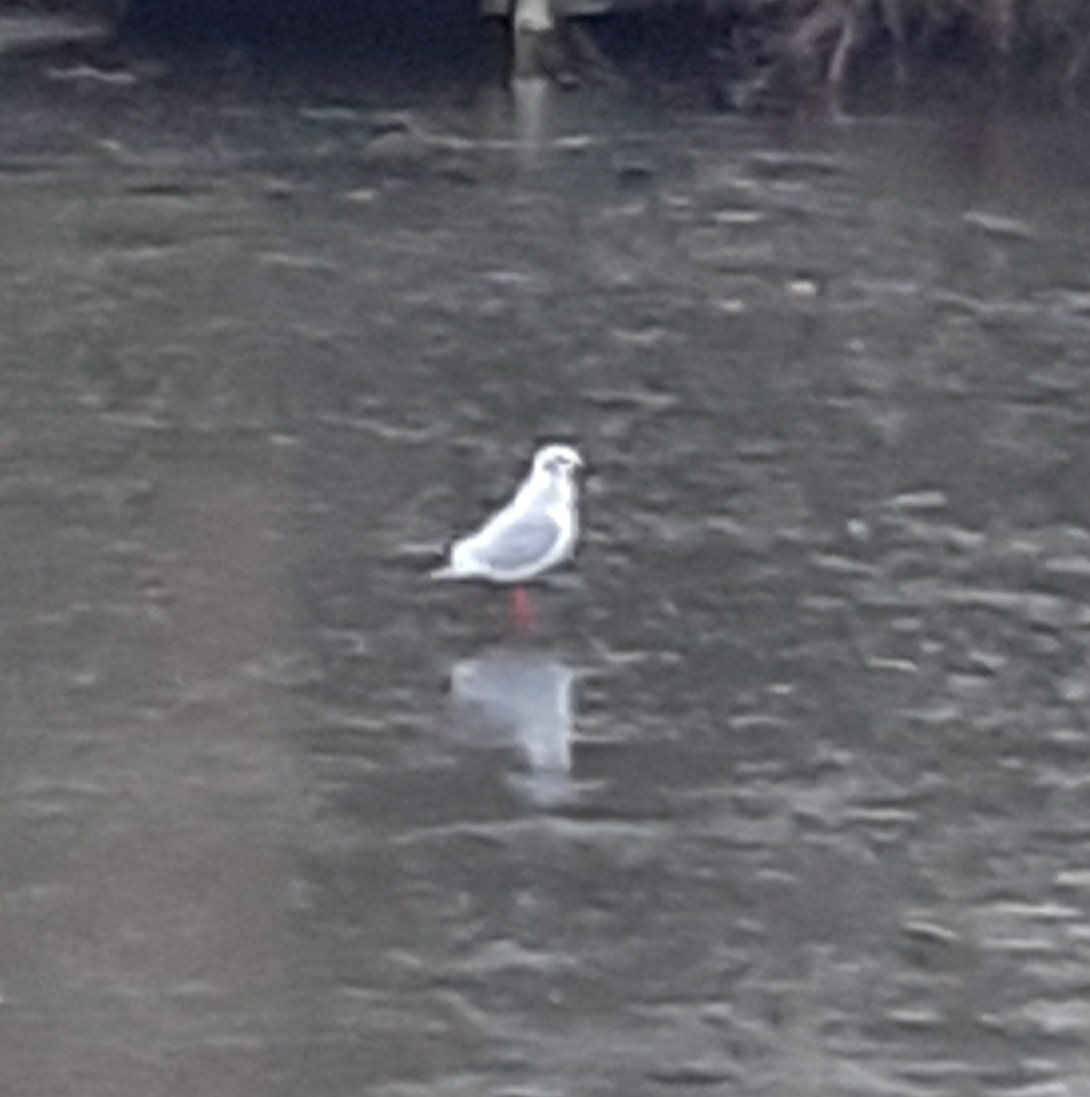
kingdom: Animalia
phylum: Chordata
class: Aves
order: Charadriiformes
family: Laridae
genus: Chroicocephalus
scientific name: Chroicocephalus ridibundus
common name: Black-headed gull
